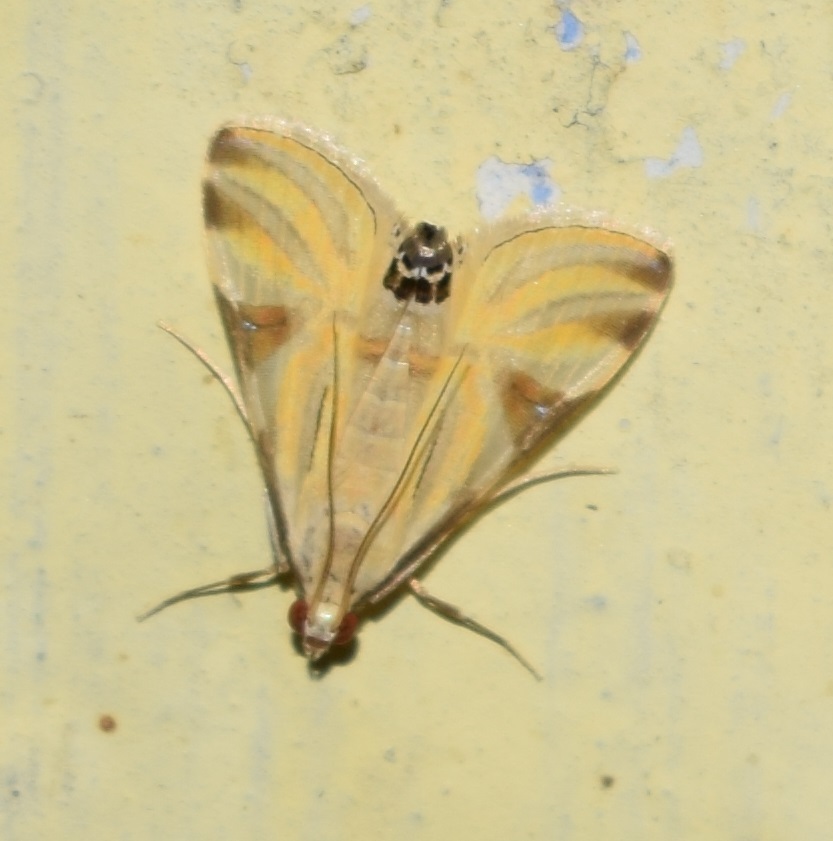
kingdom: Animalia
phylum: Arthropoda
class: Insecta
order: Lepidoptera
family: Crambidae
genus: Talanga
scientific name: Talanga sexpunctalis
